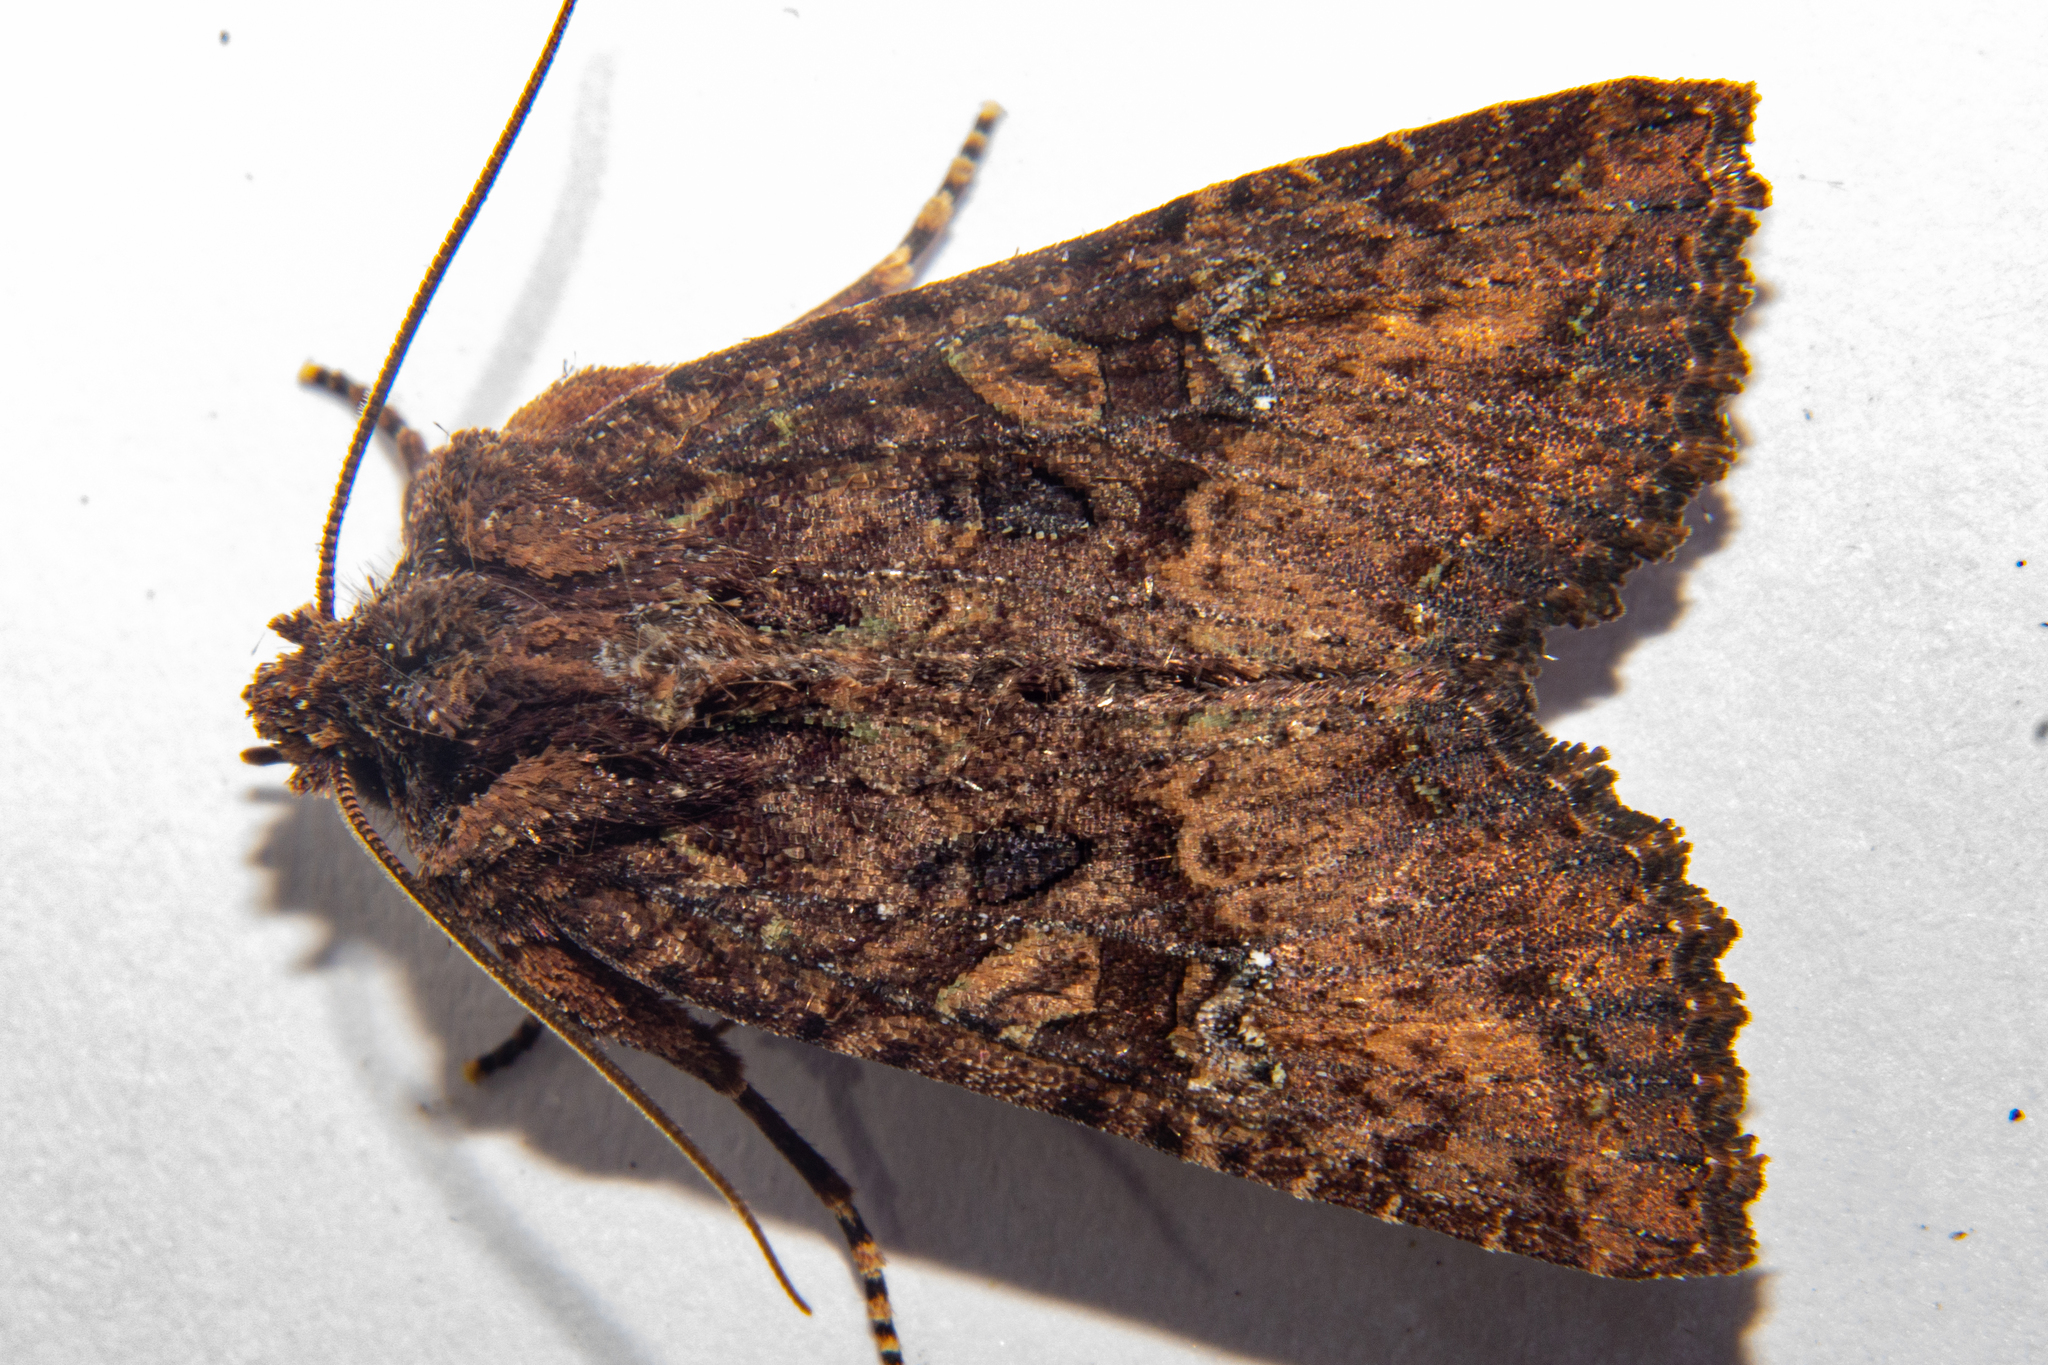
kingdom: Animalia
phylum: Arthropoda
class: Insecta
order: Lepidoptera
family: Noctuidae
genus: Meterana
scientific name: Meterana ochthistis
